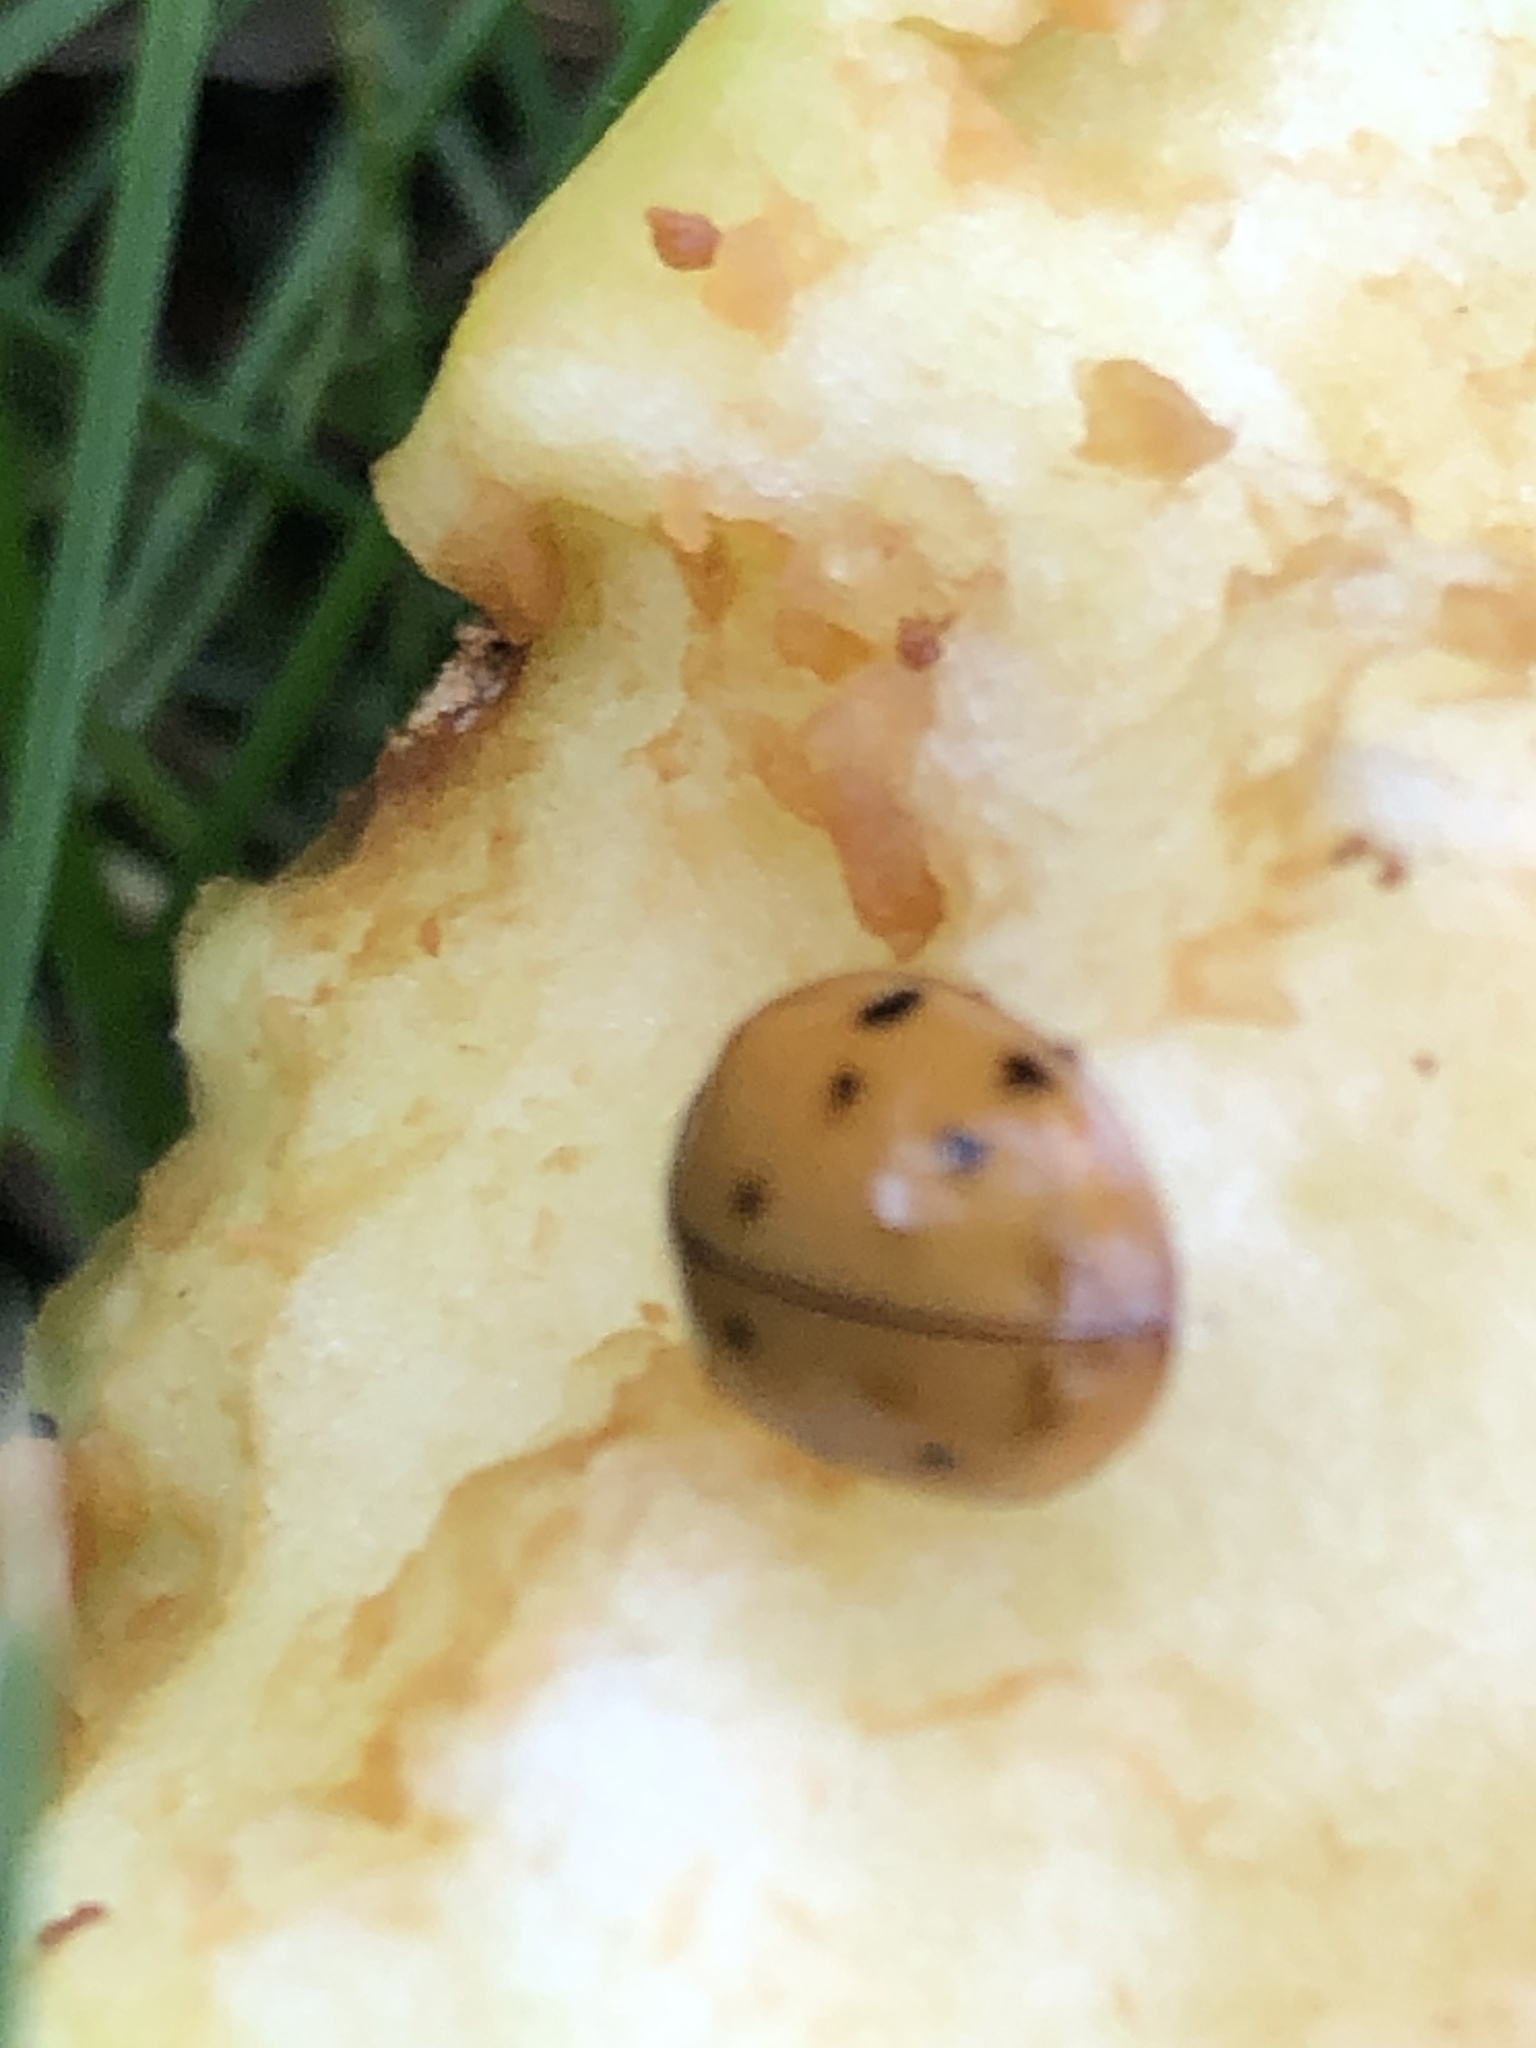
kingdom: Animalia
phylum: Arthropoda
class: Insecta
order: Coleoptera
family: Coccinellidae
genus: Harmonia
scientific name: Harmonia axyridis
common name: Harlequin ladybird
